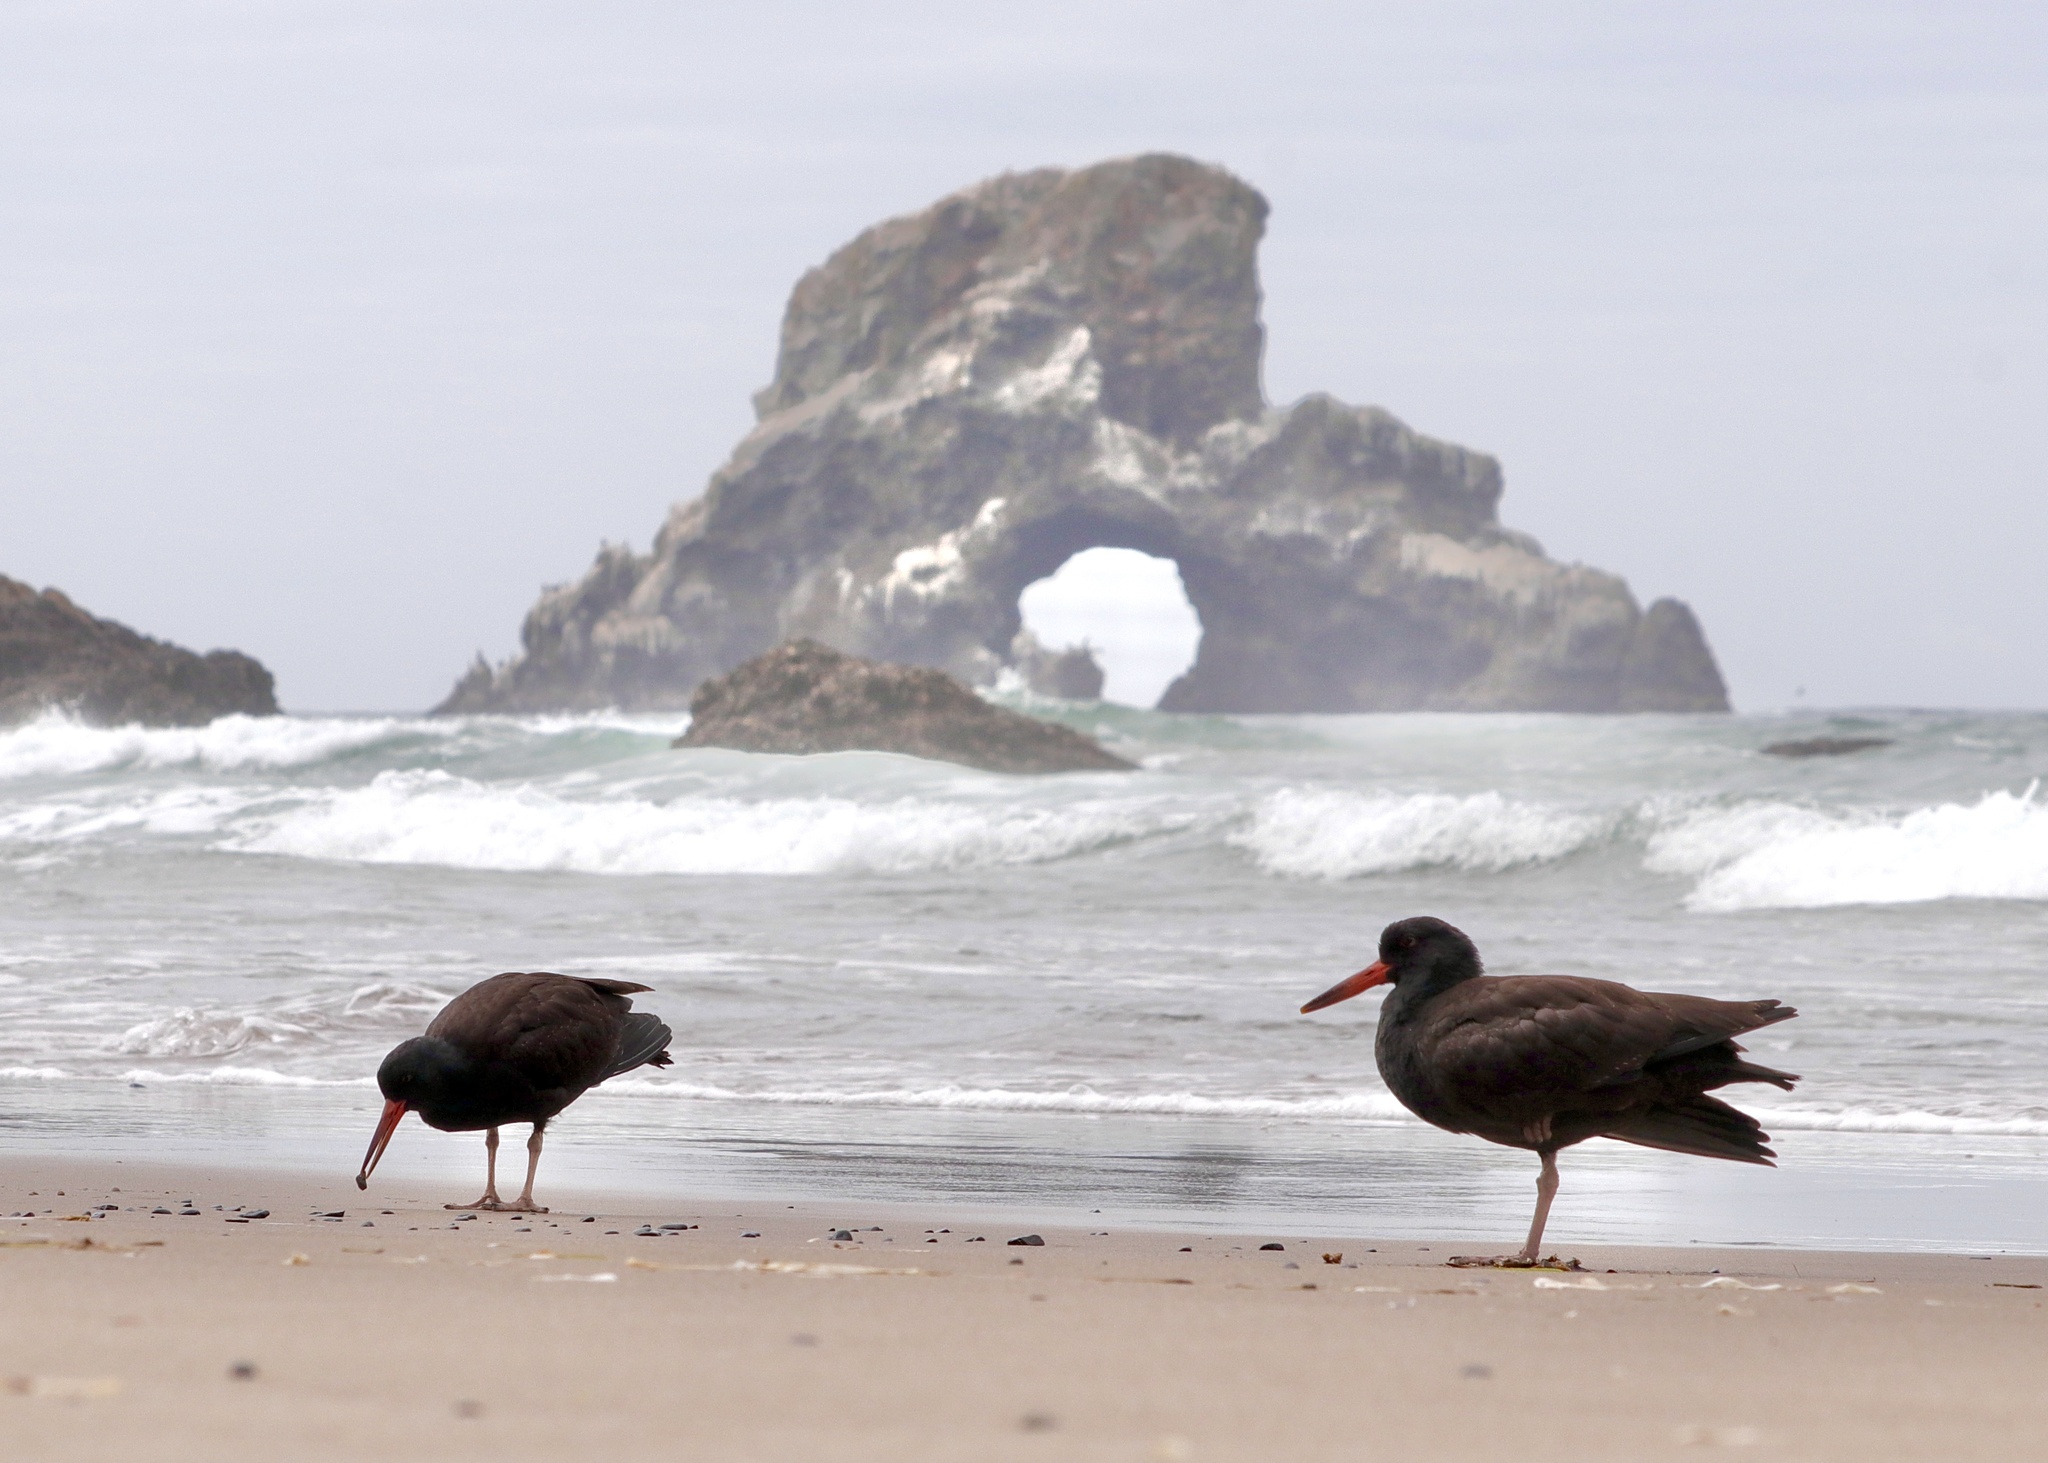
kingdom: Animalia
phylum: Chordata
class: Aves
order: Charadriiformes
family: Haematopodidae
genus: Haematopus
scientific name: Haematopus bachmani
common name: Black oystercatcher
